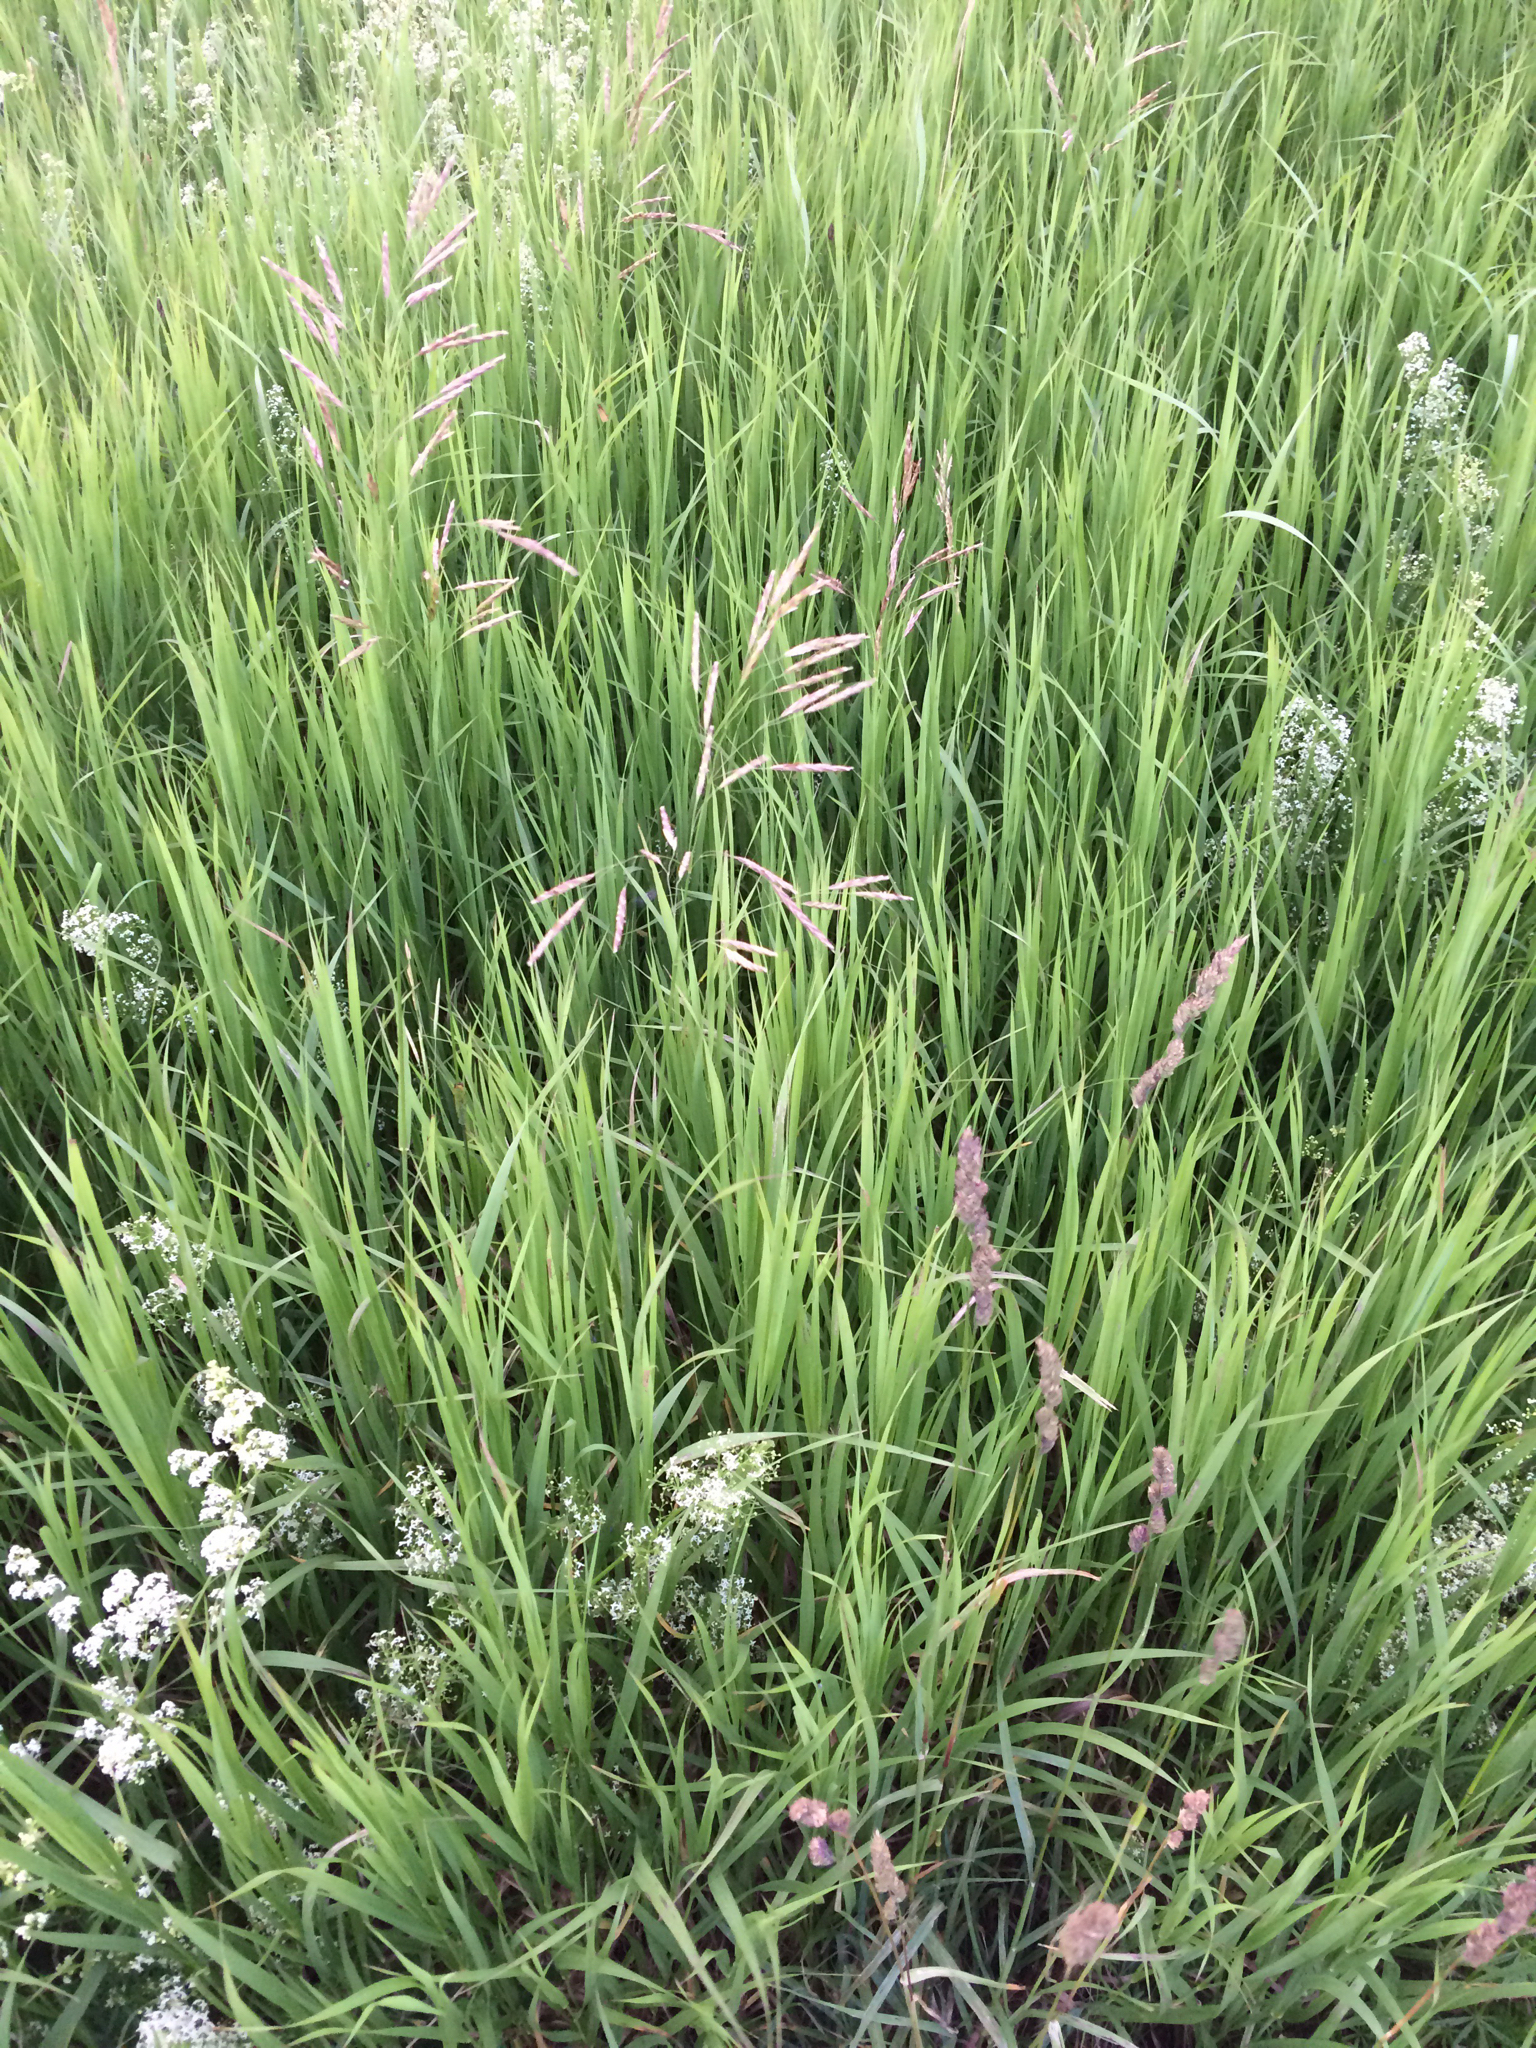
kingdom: Plantae
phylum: Tracheophyta
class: Liliopsida
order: Poales
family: Poaceae
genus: Bromus
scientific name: Bromus inermis
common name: Smooth brome
